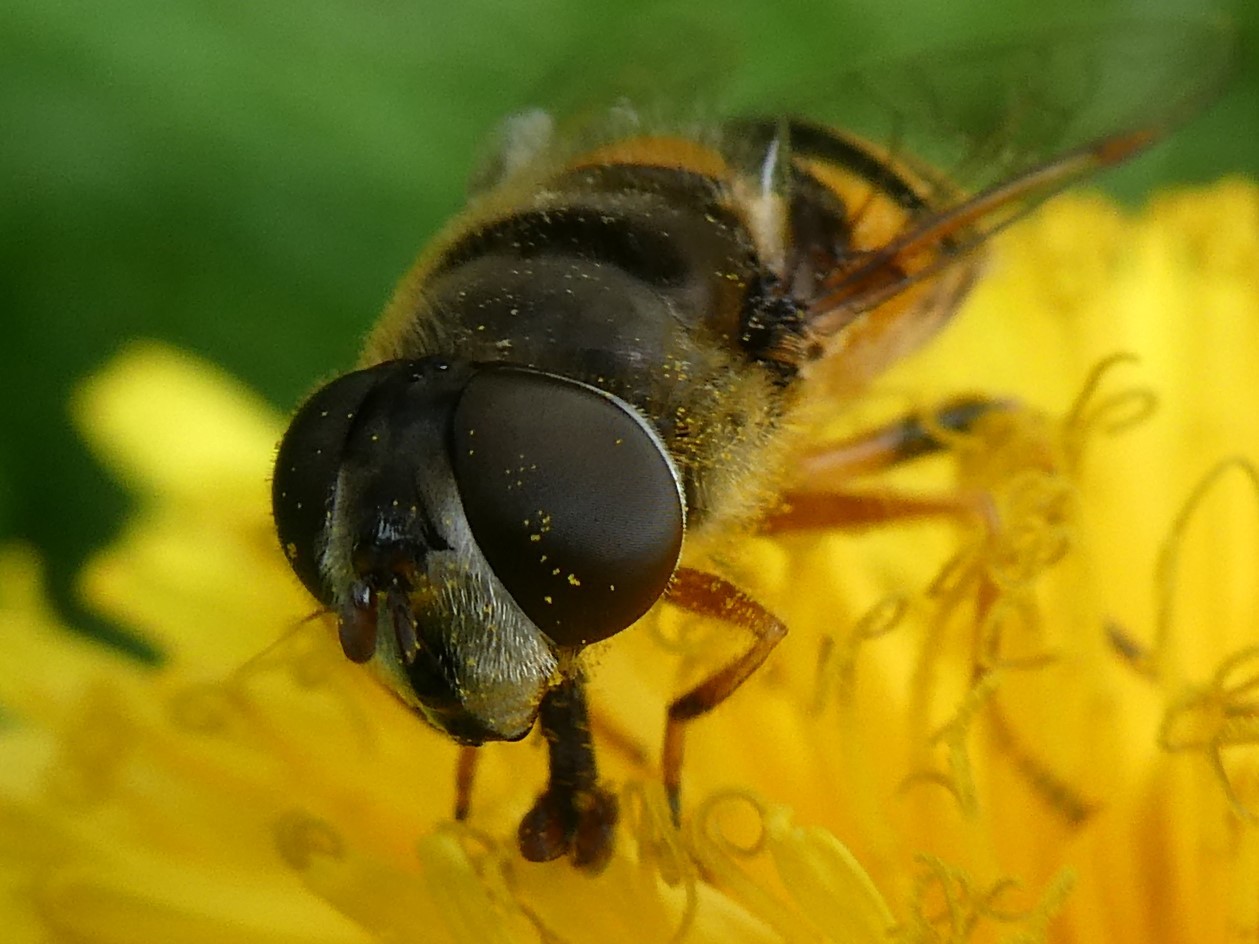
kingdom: Animalia
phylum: Arthropoda
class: Insecta
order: Diptera
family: Syrphidae
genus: Eristalis
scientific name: Eristalis transversa
